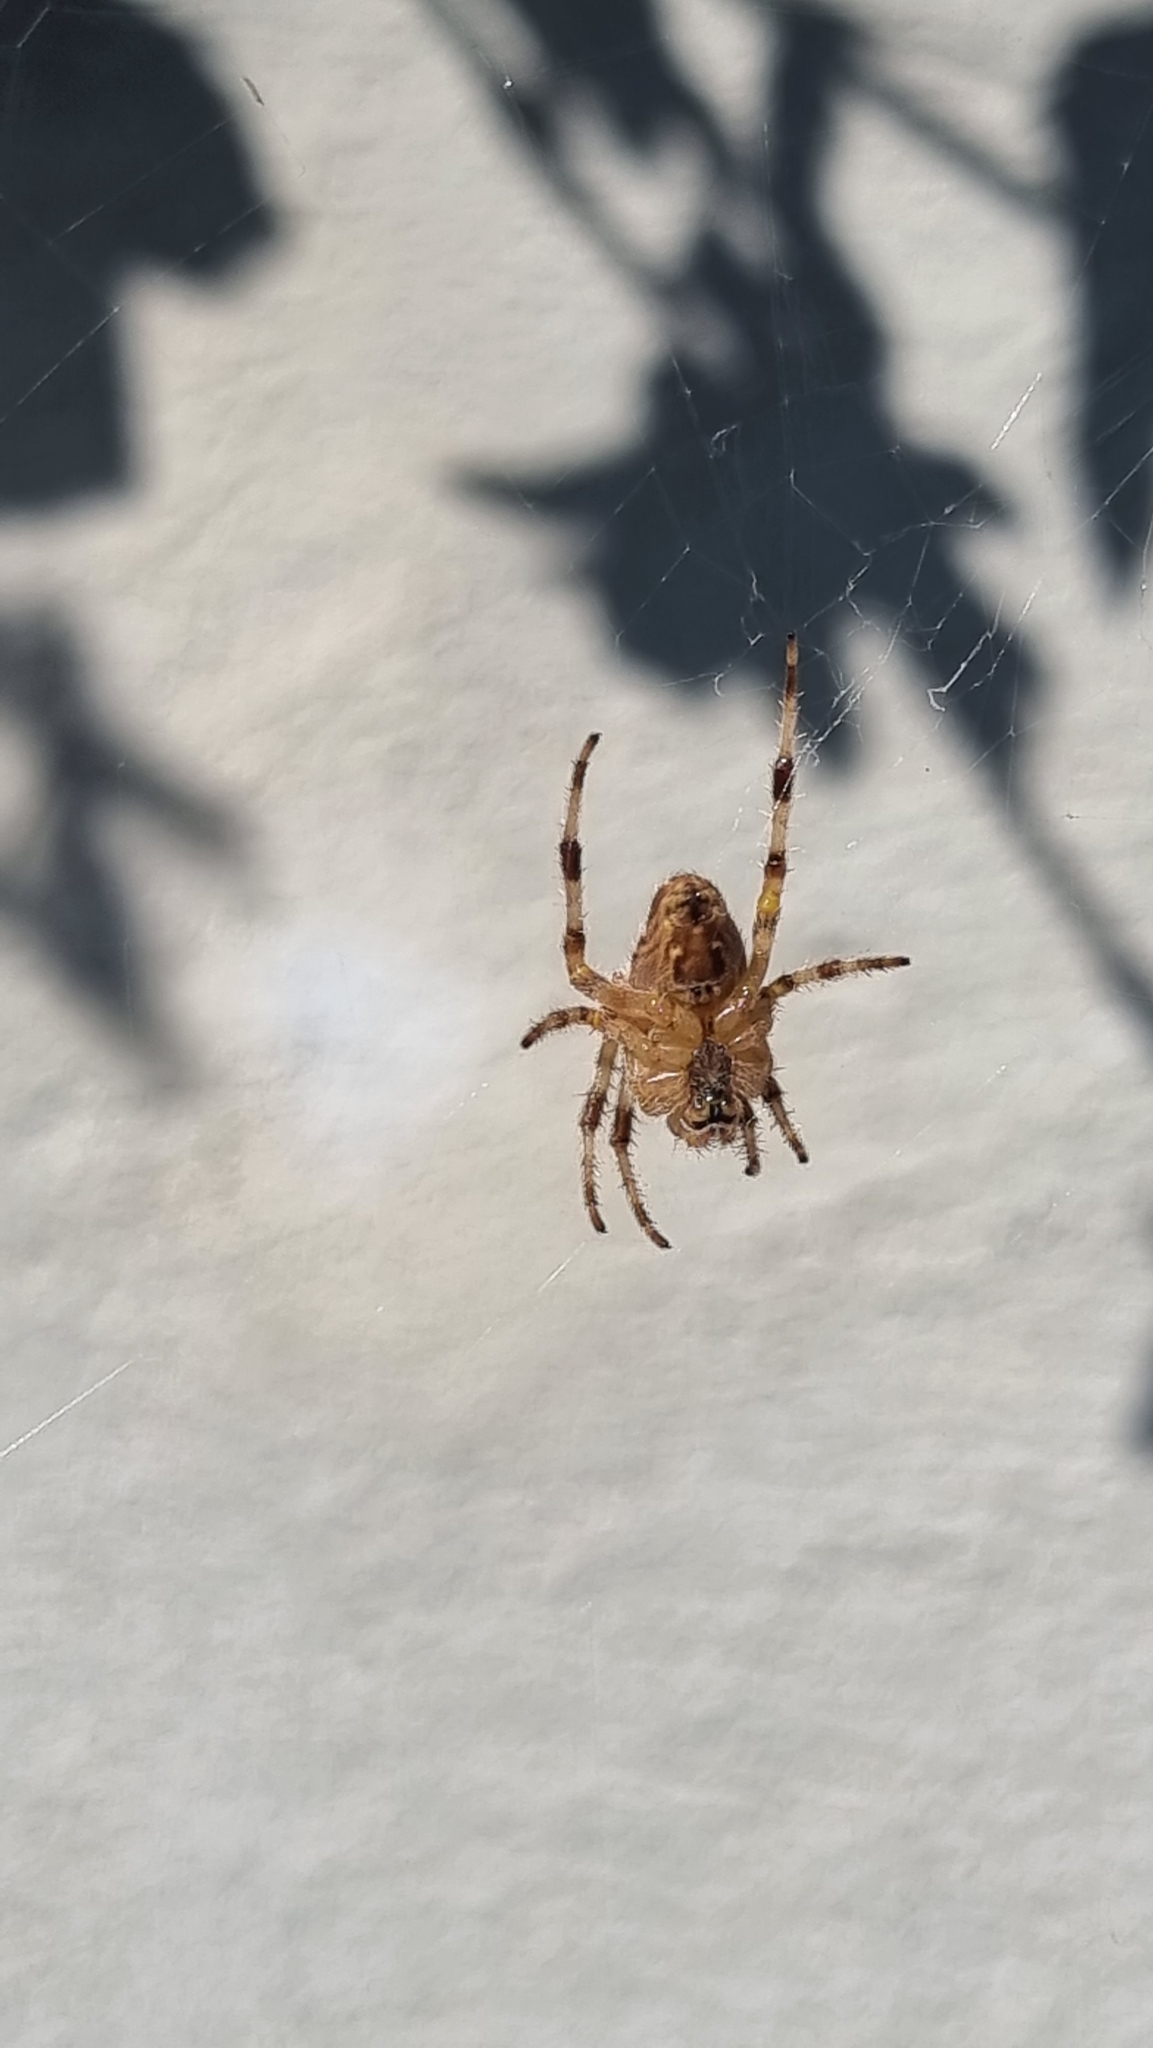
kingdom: Animalia
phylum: Arthropoda
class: Arachnida
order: Araneae
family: Araneidae
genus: Araneus
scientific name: Araneus diadematus
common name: Cross orbweaver
